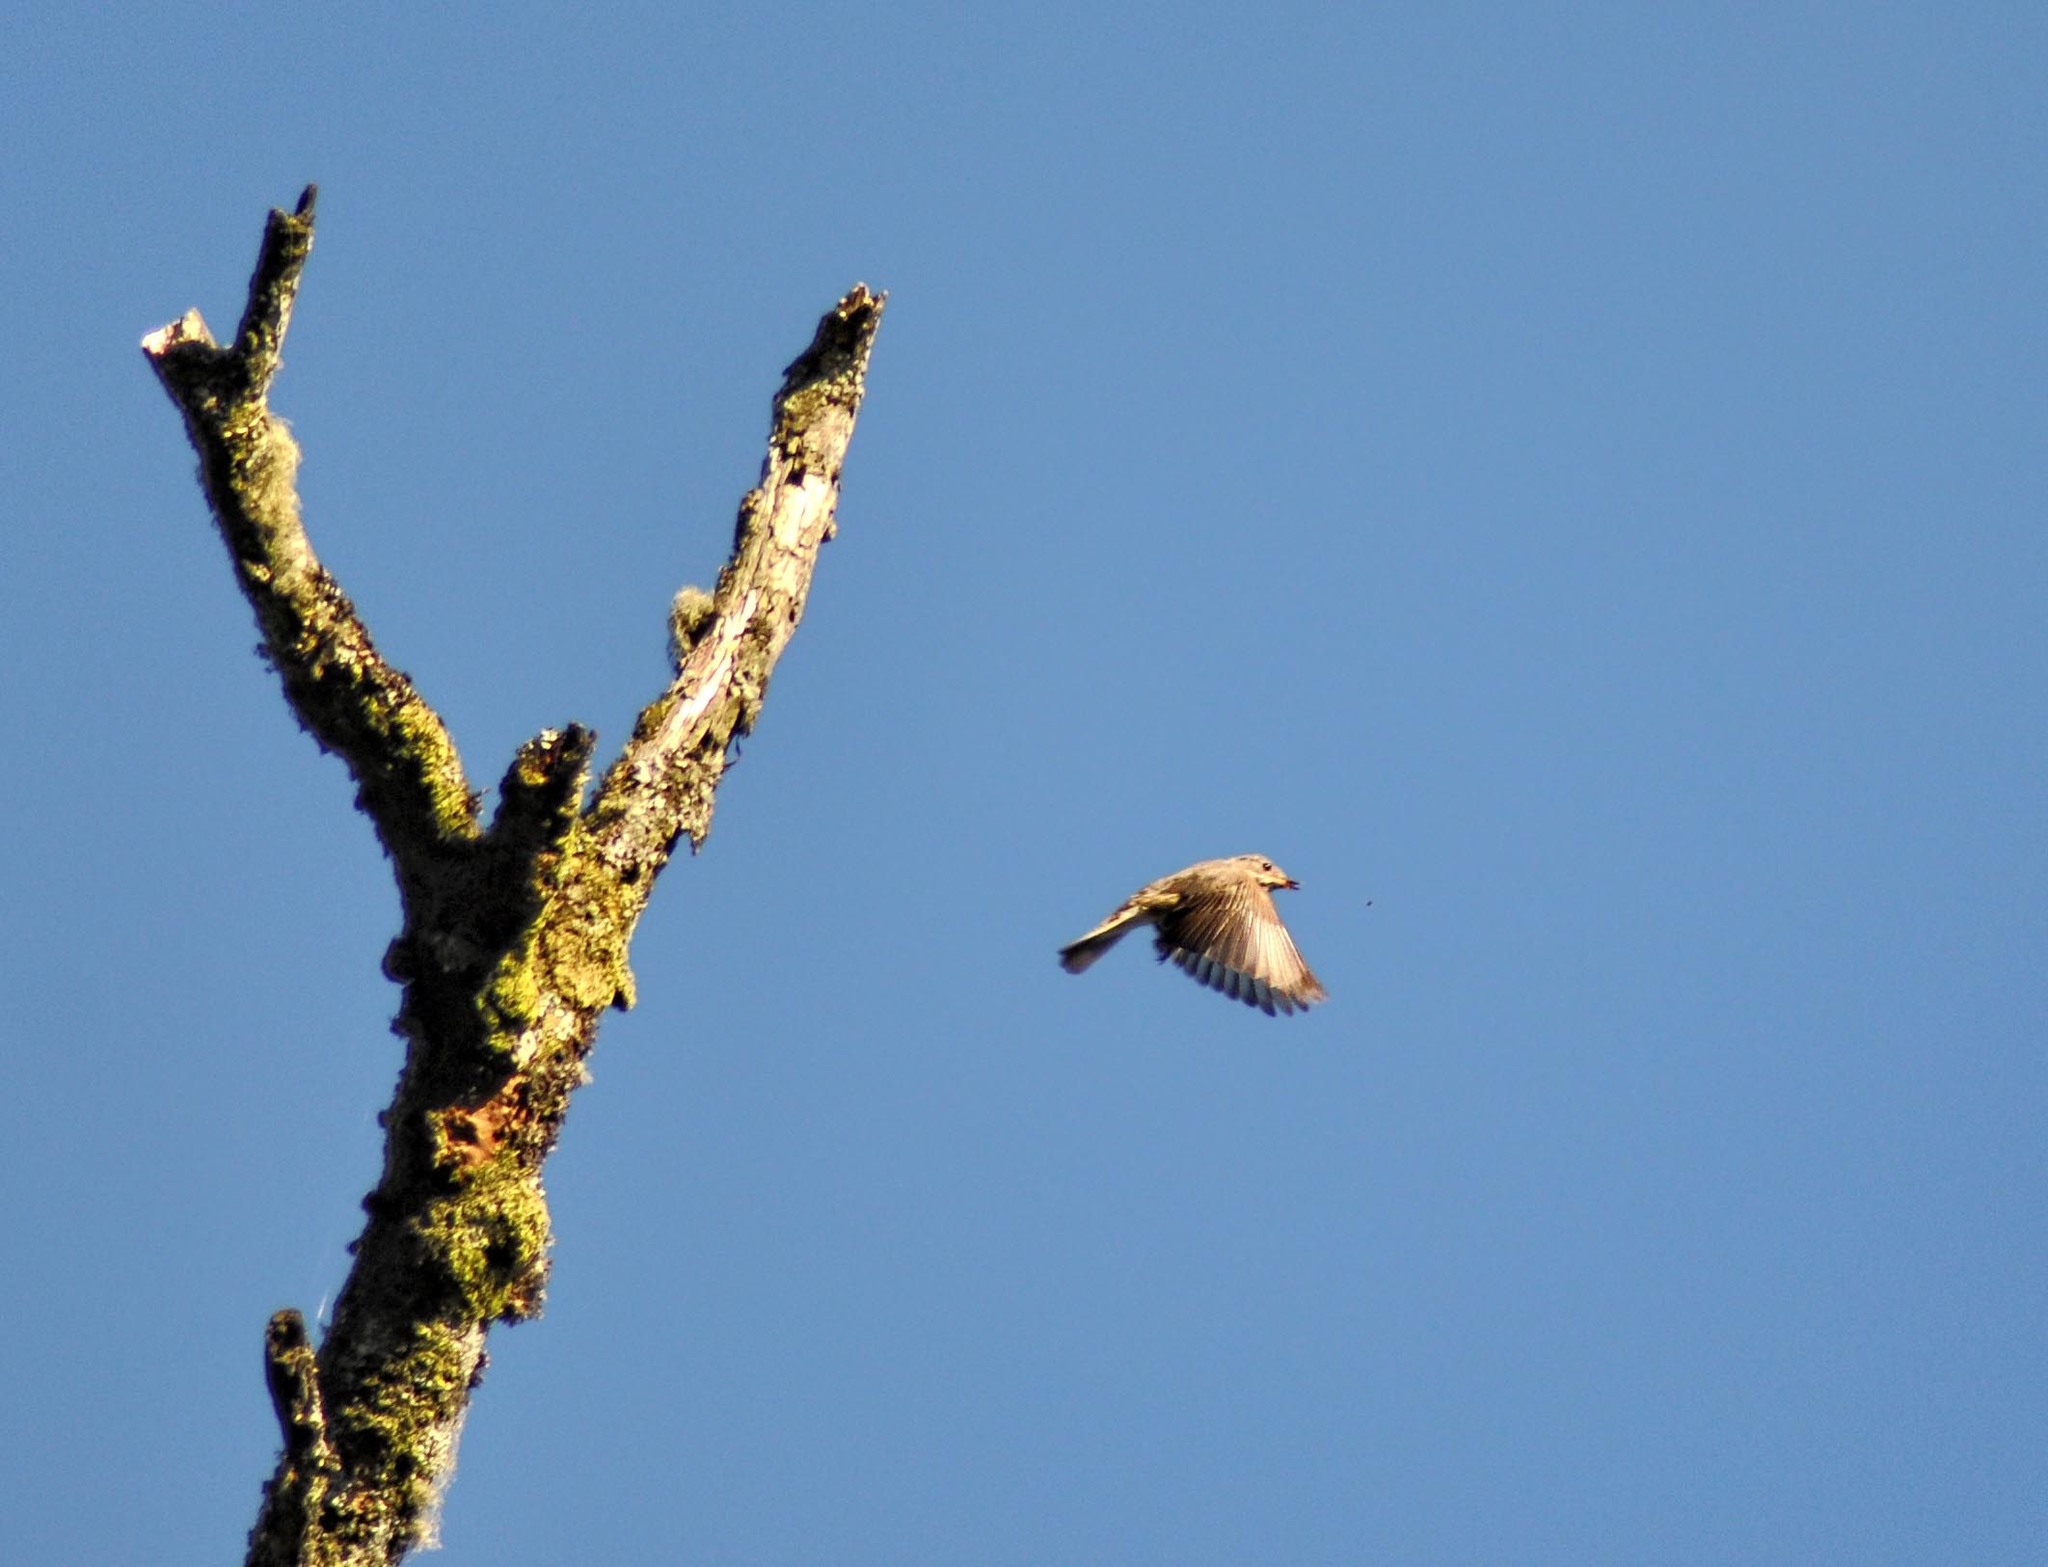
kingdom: Animalia
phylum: Chordata
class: Aves
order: Passeriformes
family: Muscicapidae
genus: Muscicapa
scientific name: Muscicapa striata
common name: Spotted flycatcher
